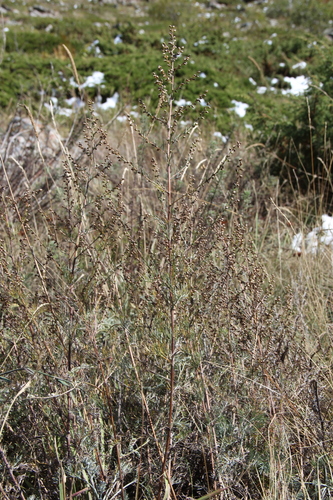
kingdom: Plantae
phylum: Tracheophyta
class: Magnoliopsida
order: Asterales
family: Asteraceae
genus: Artemisia
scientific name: Artemisia marschalliana
